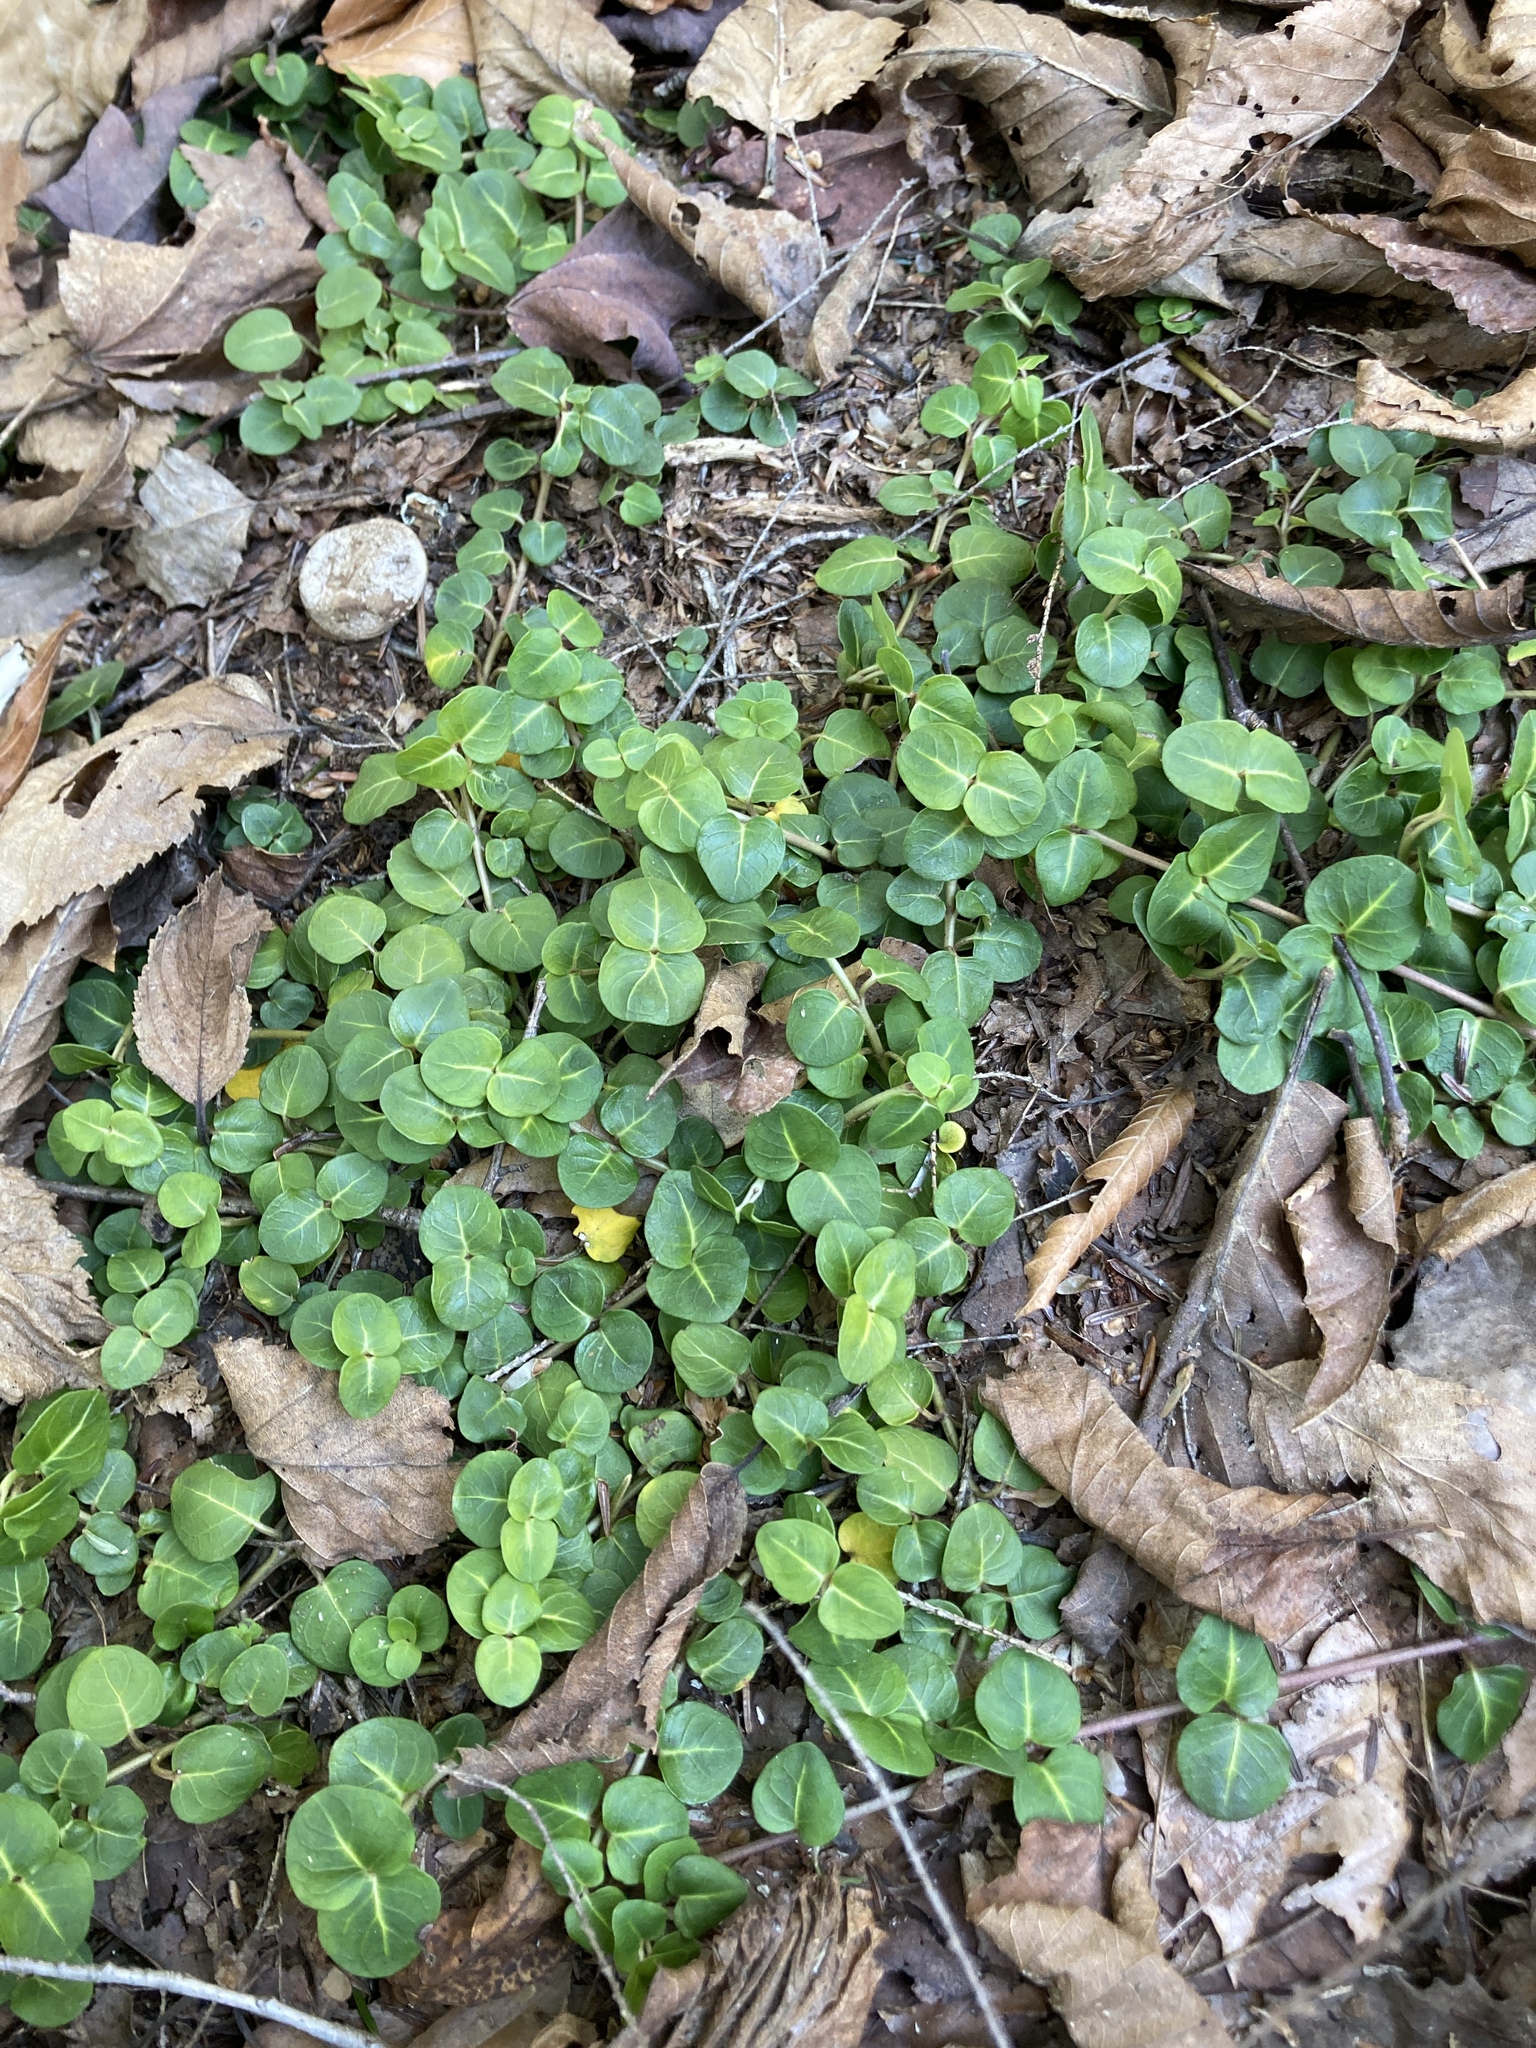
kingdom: Plantae
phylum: Tracheophyta
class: Magnoliopsida
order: Gentianales
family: Rubiaceae
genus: Mitchella
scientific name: Mitchella repens
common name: Partridge-berry
